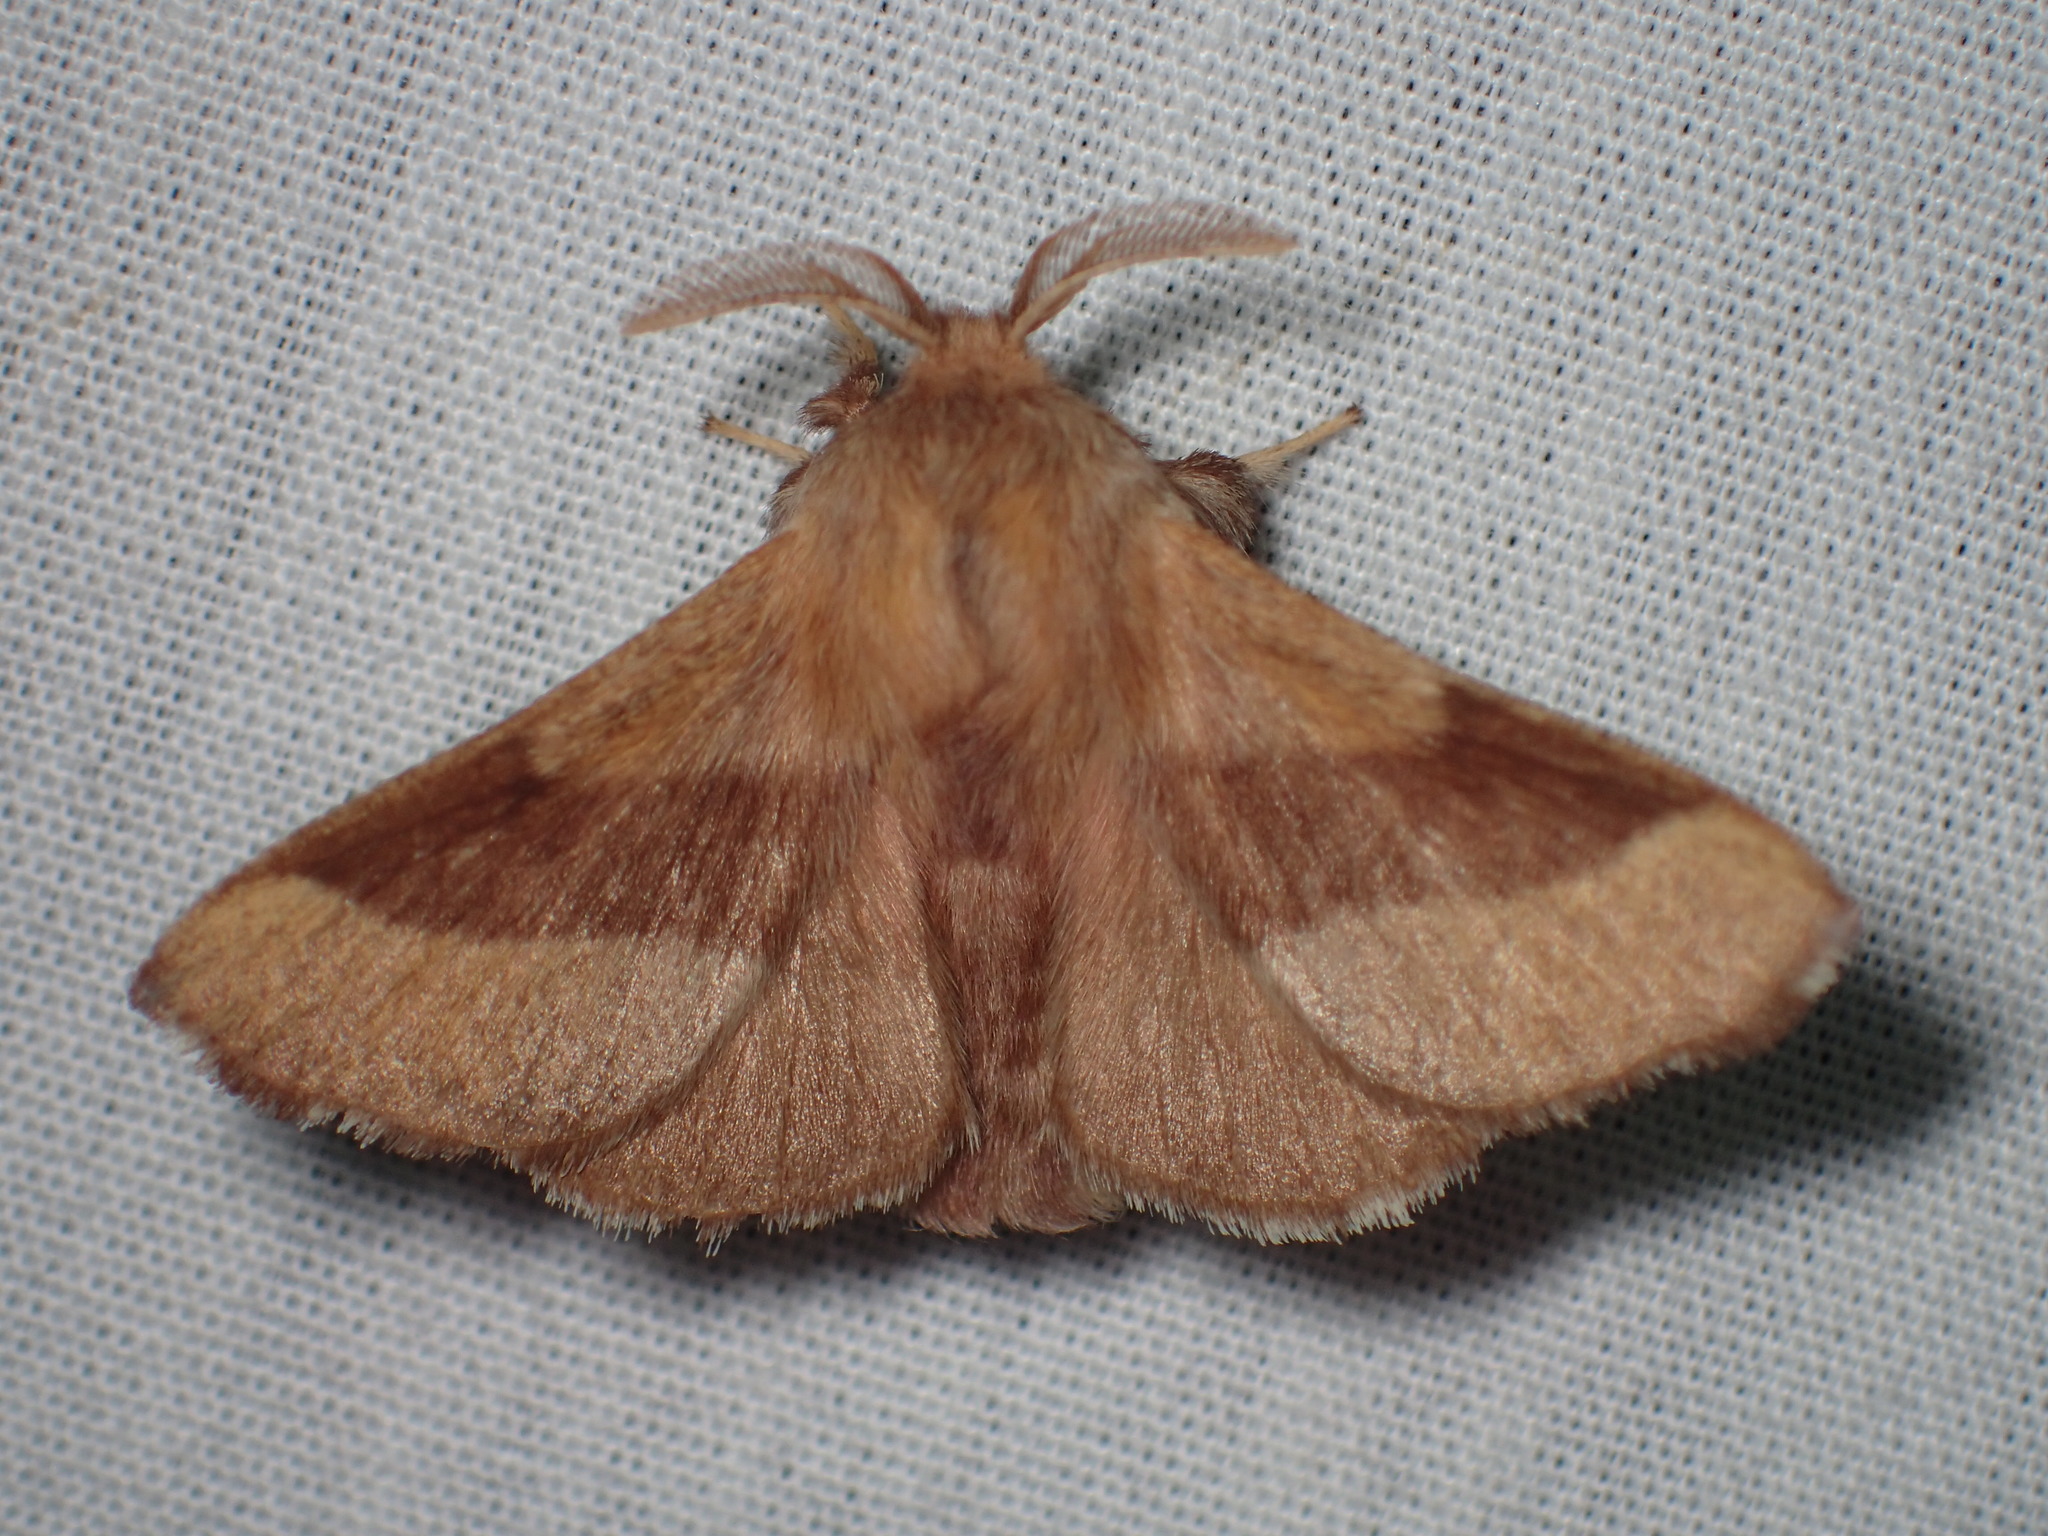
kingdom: Animalia
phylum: Arthropoda
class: Insecta
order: Lepidoptera
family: Lasiocampidae
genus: Malacosoma
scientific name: Malacosoma disstria
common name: Forest tent caterpillar
